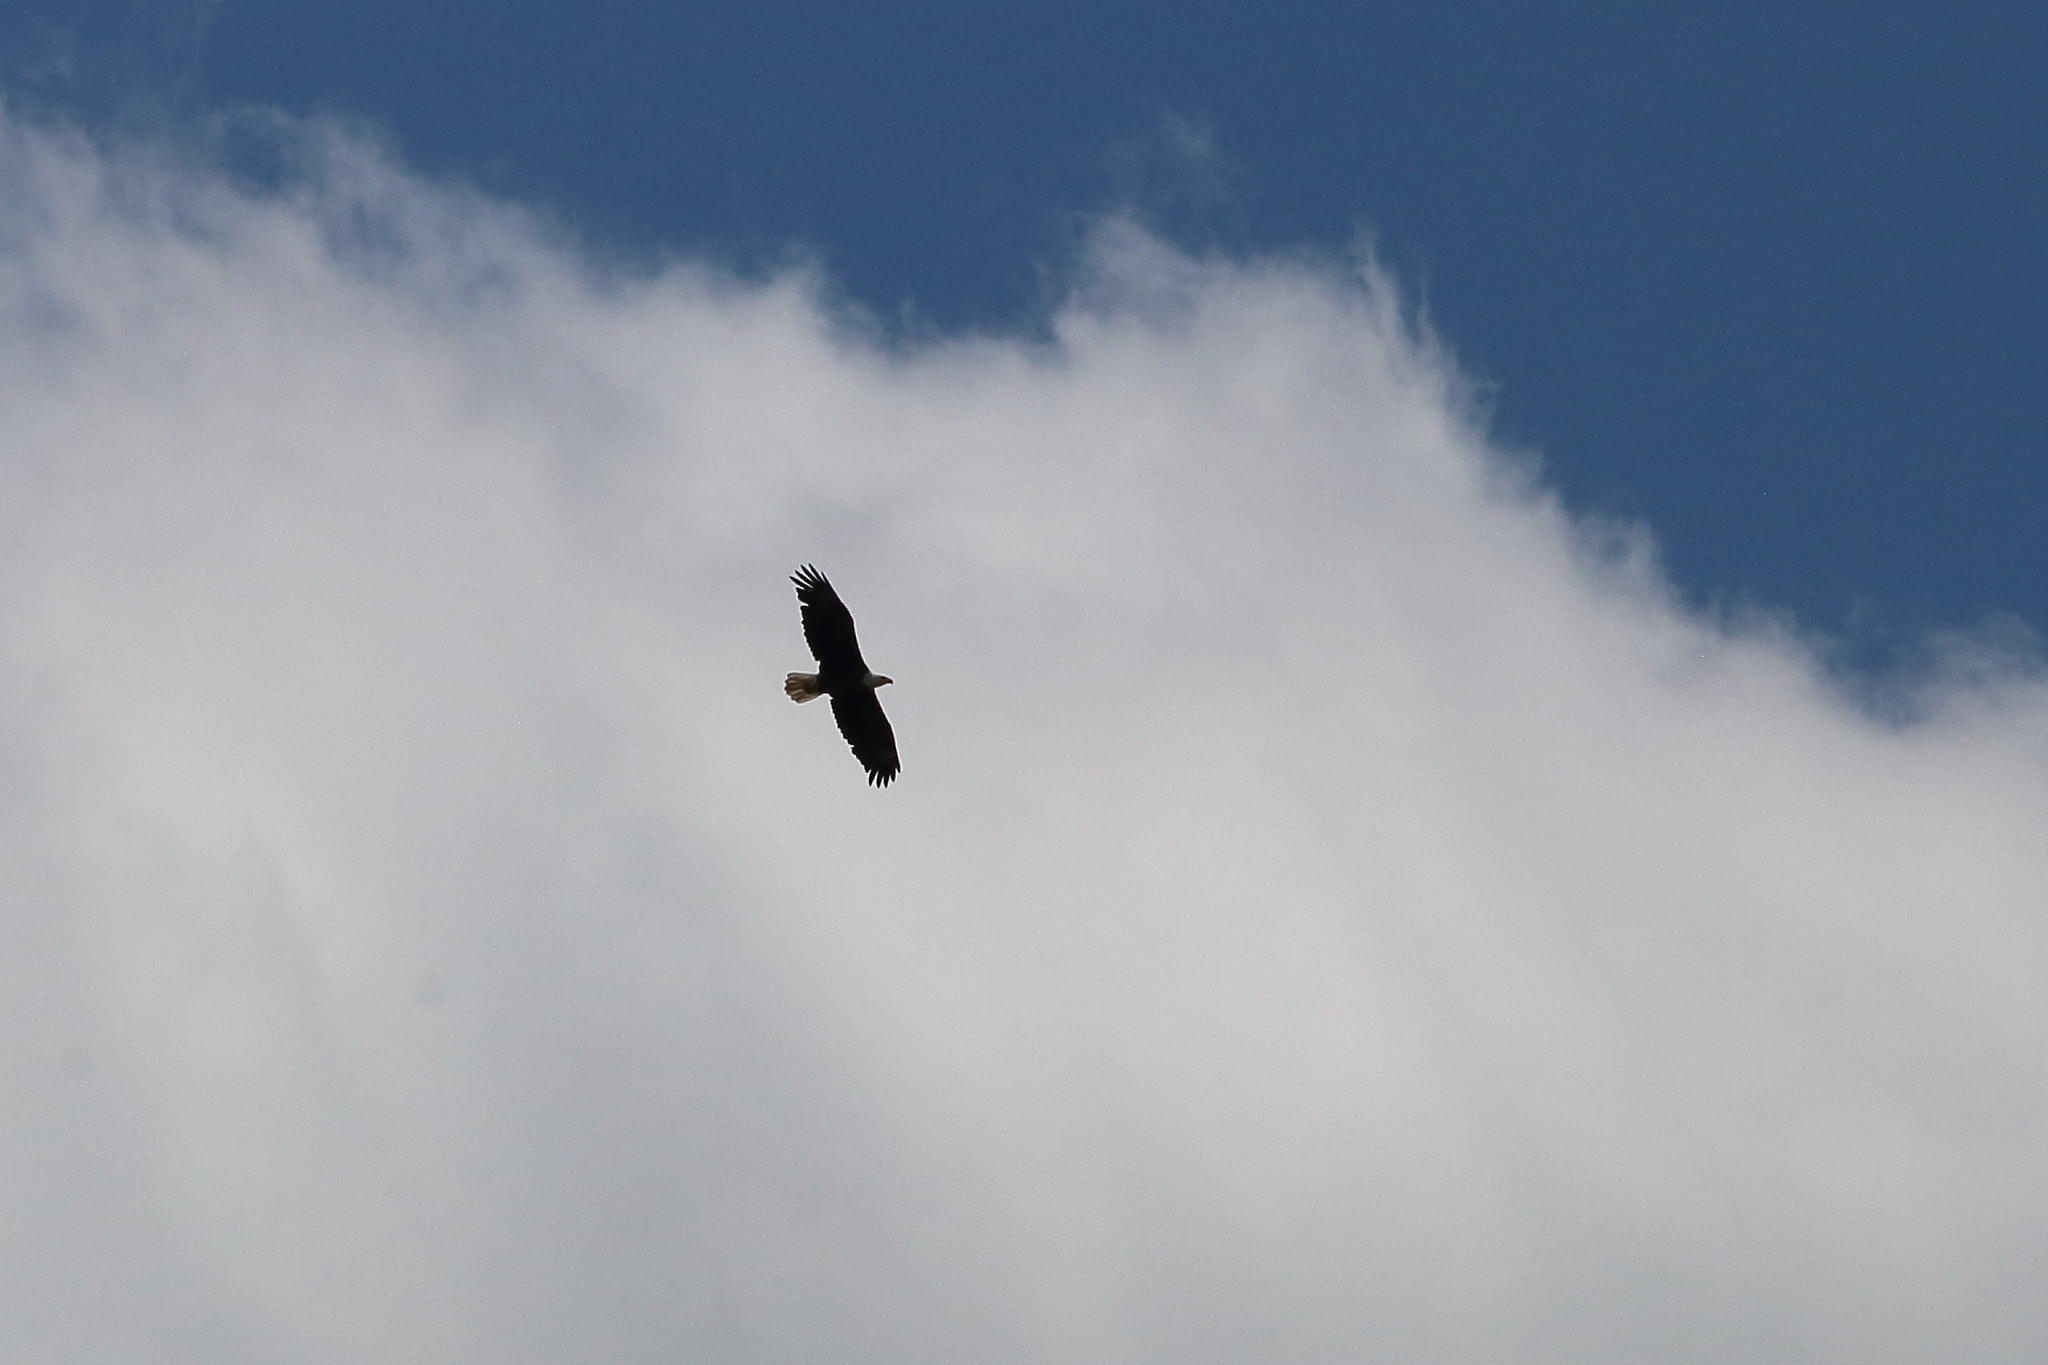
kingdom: Animalia
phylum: Chordata
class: Aves
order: Accipitriformes
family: Accipitridae
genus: Haliaeetus
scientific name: Haliaeetus leucocephalus
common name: Bald eagle
